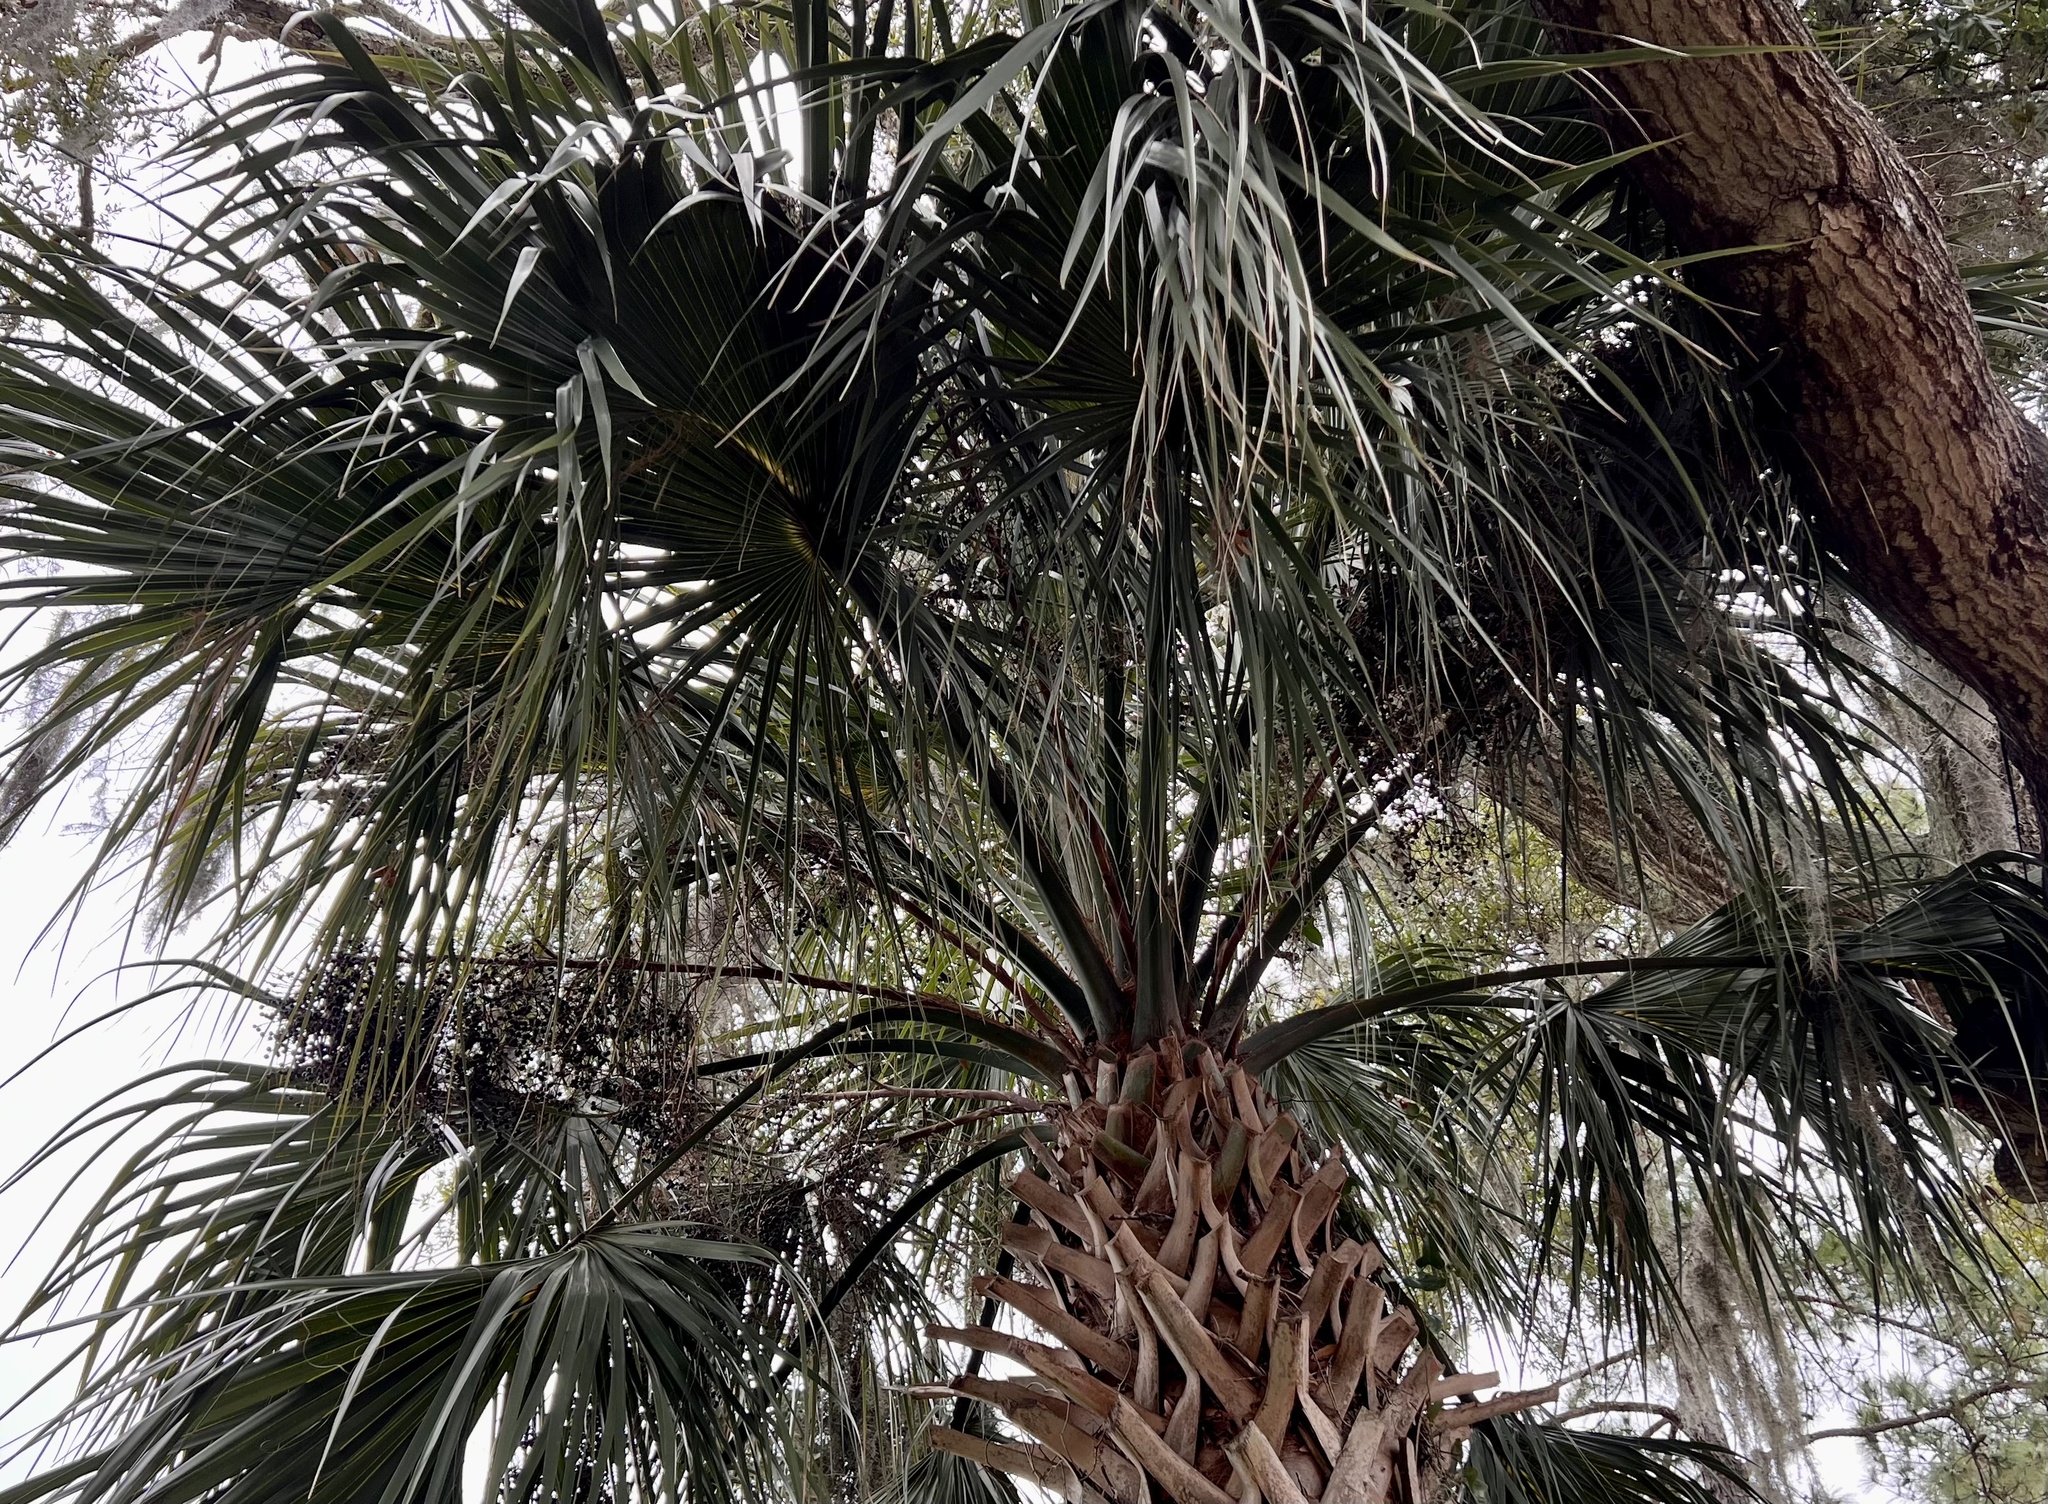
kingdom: Plantae
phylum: Tracheophyta
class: Liliopsida
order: Arecales
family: Arecaceae
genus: Sabal
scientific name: Sabal palmetto
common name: Blue palmetto
